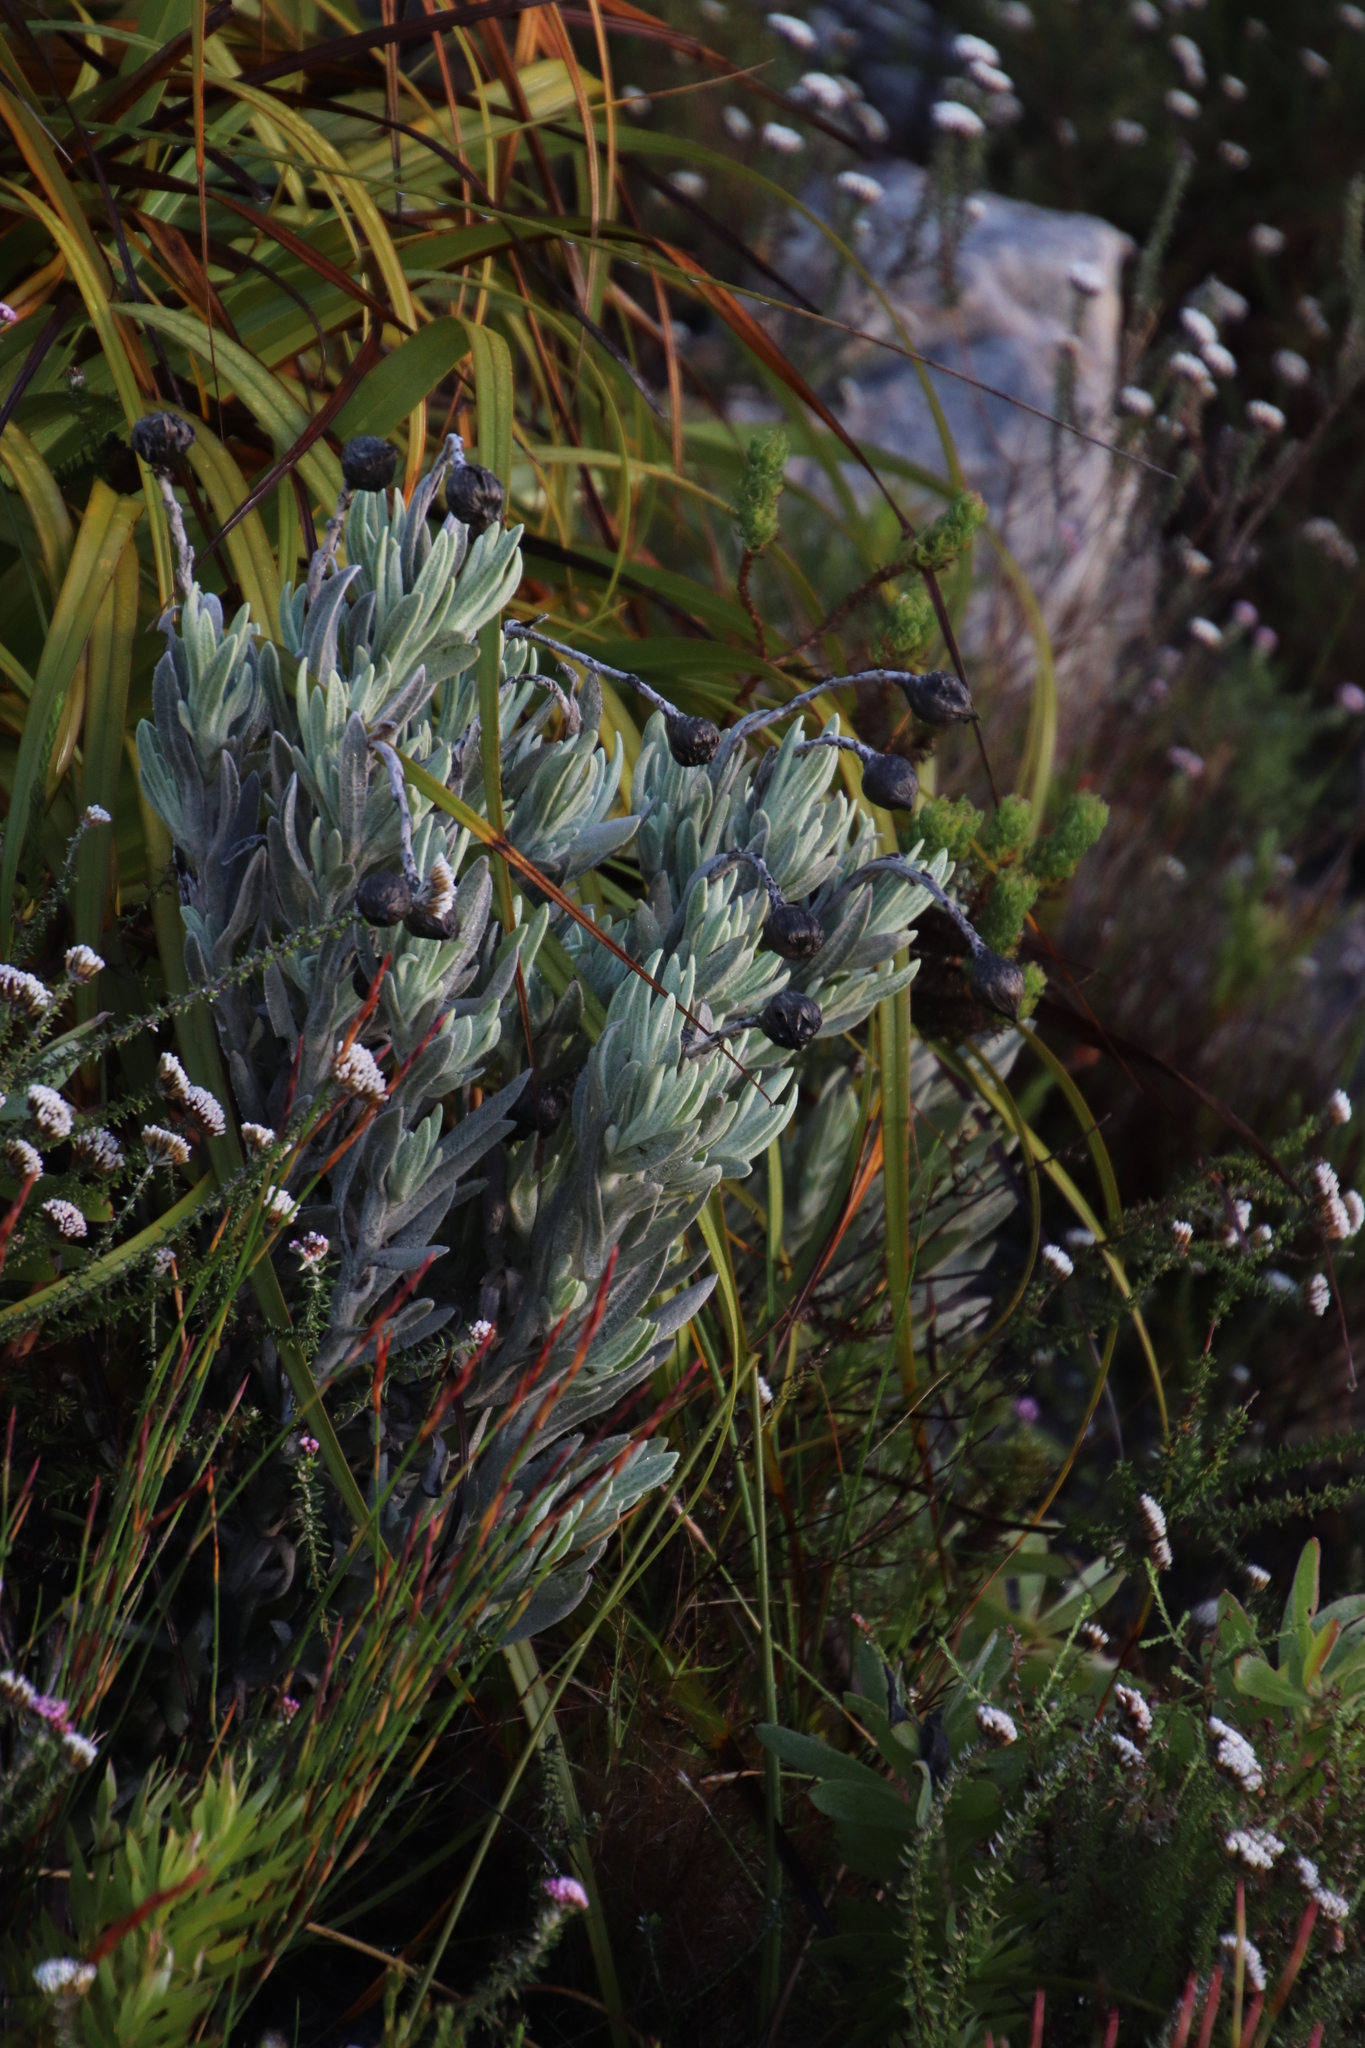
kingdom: Plantae
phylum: Tracheophyta
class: Magnoliopsida
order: Asterales
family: Asteraceae
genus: Syncarpha
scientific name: Syncarpha vestita
